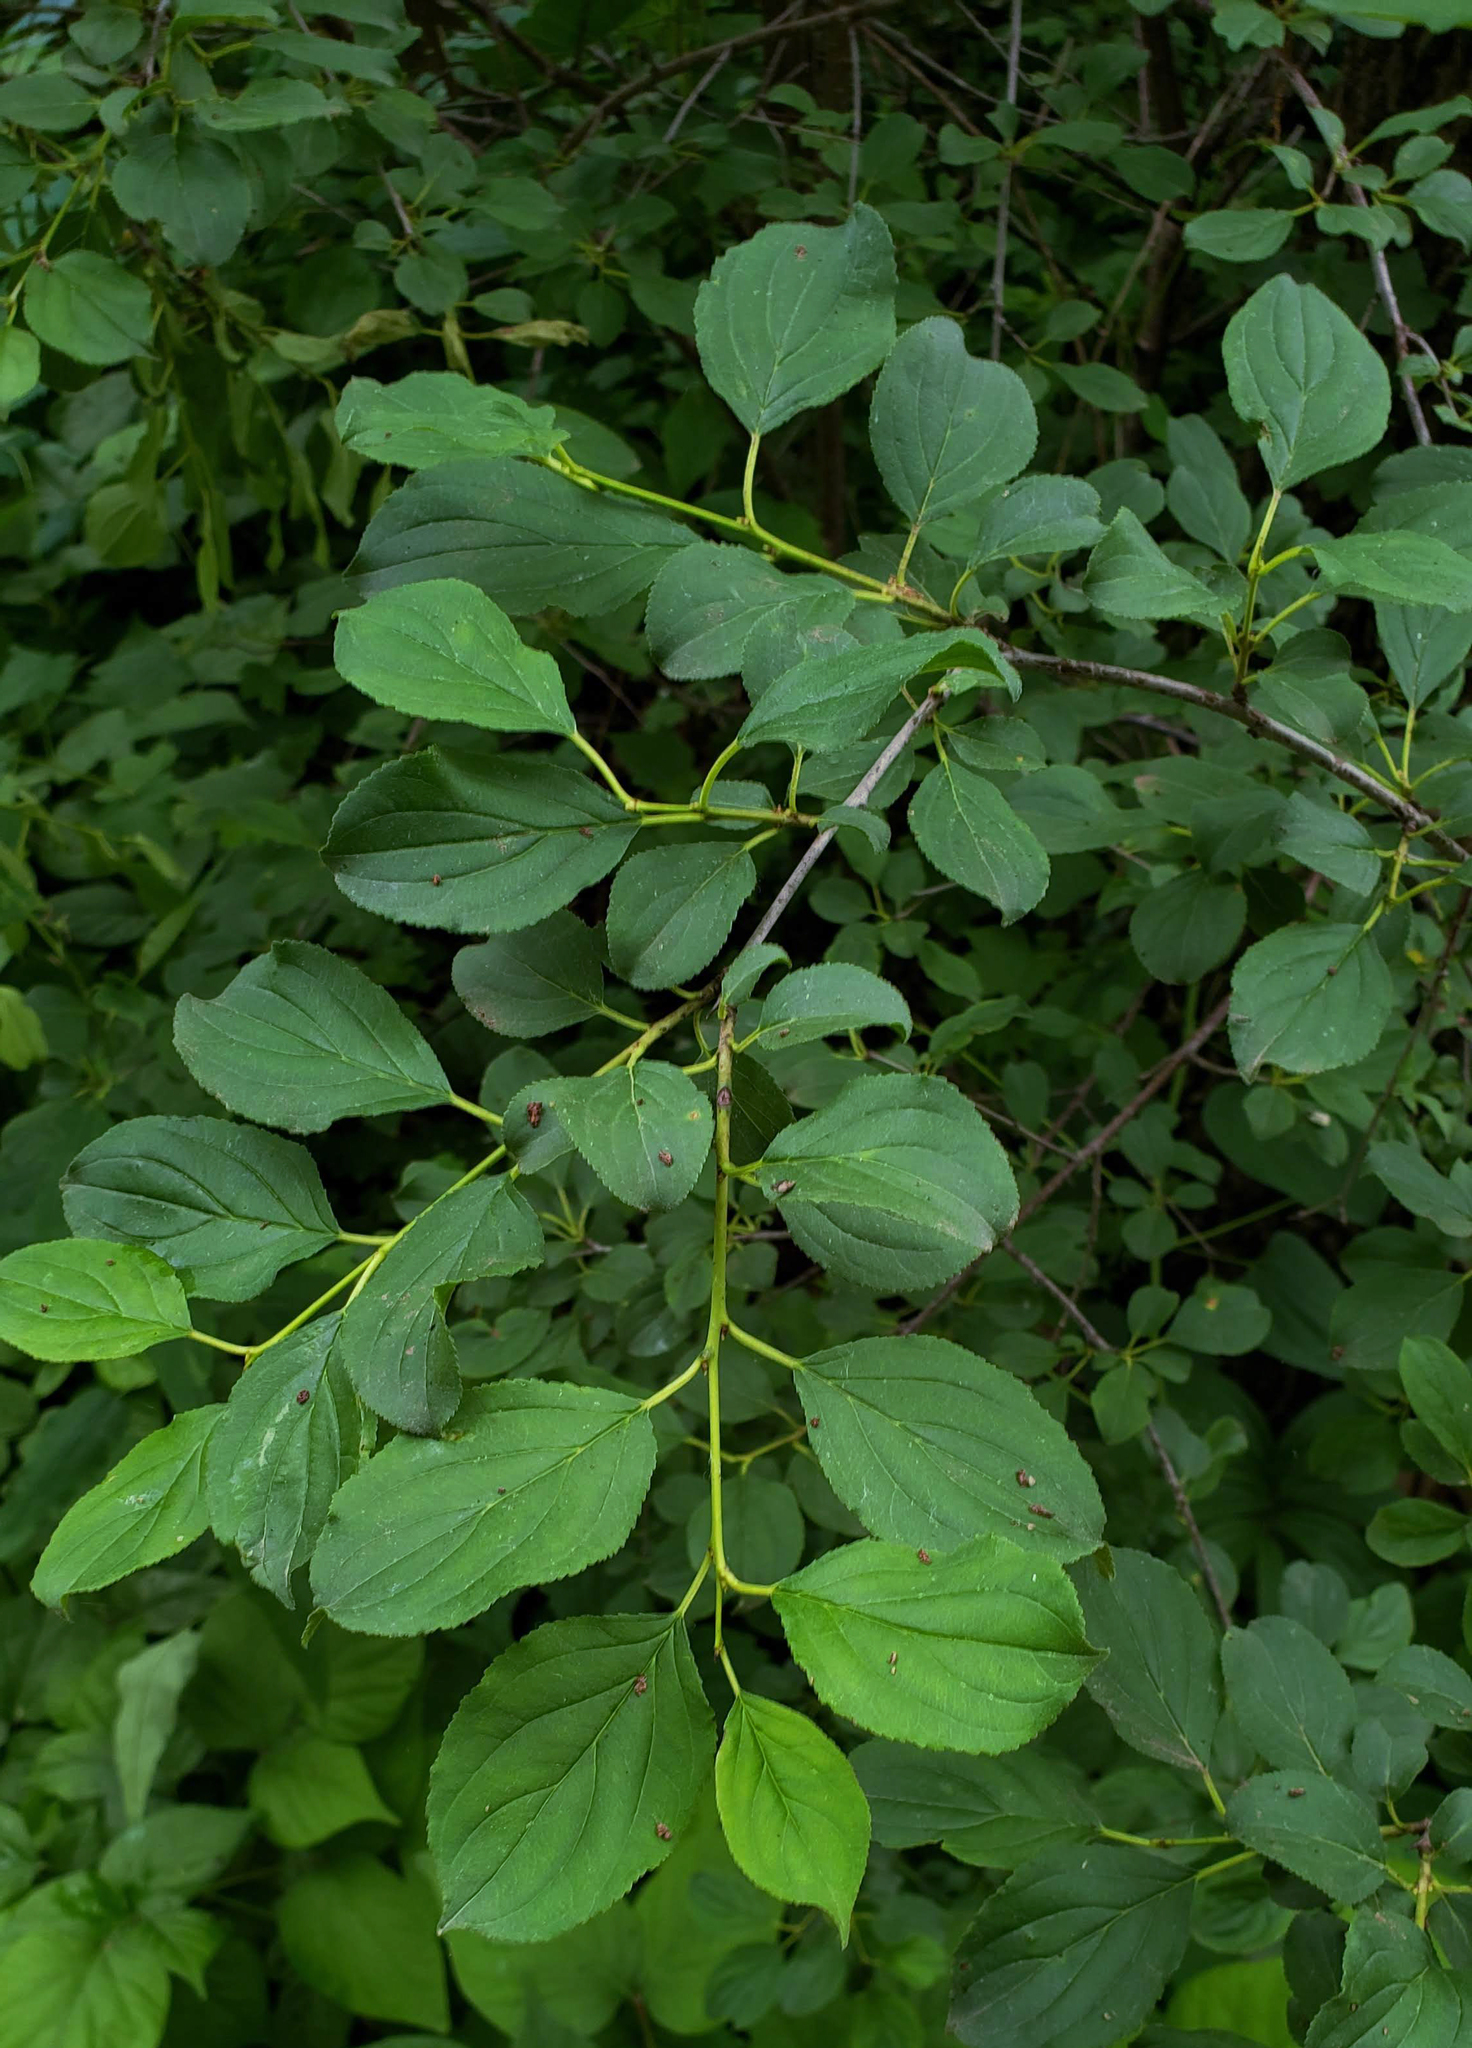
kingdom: Plantae
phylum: Tracheophyta
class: Magnoliopsida
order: Rosales
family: Rhamnaceae
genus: Rhamnus
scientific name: Rhamnus cathartica
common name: Common buckthorn
